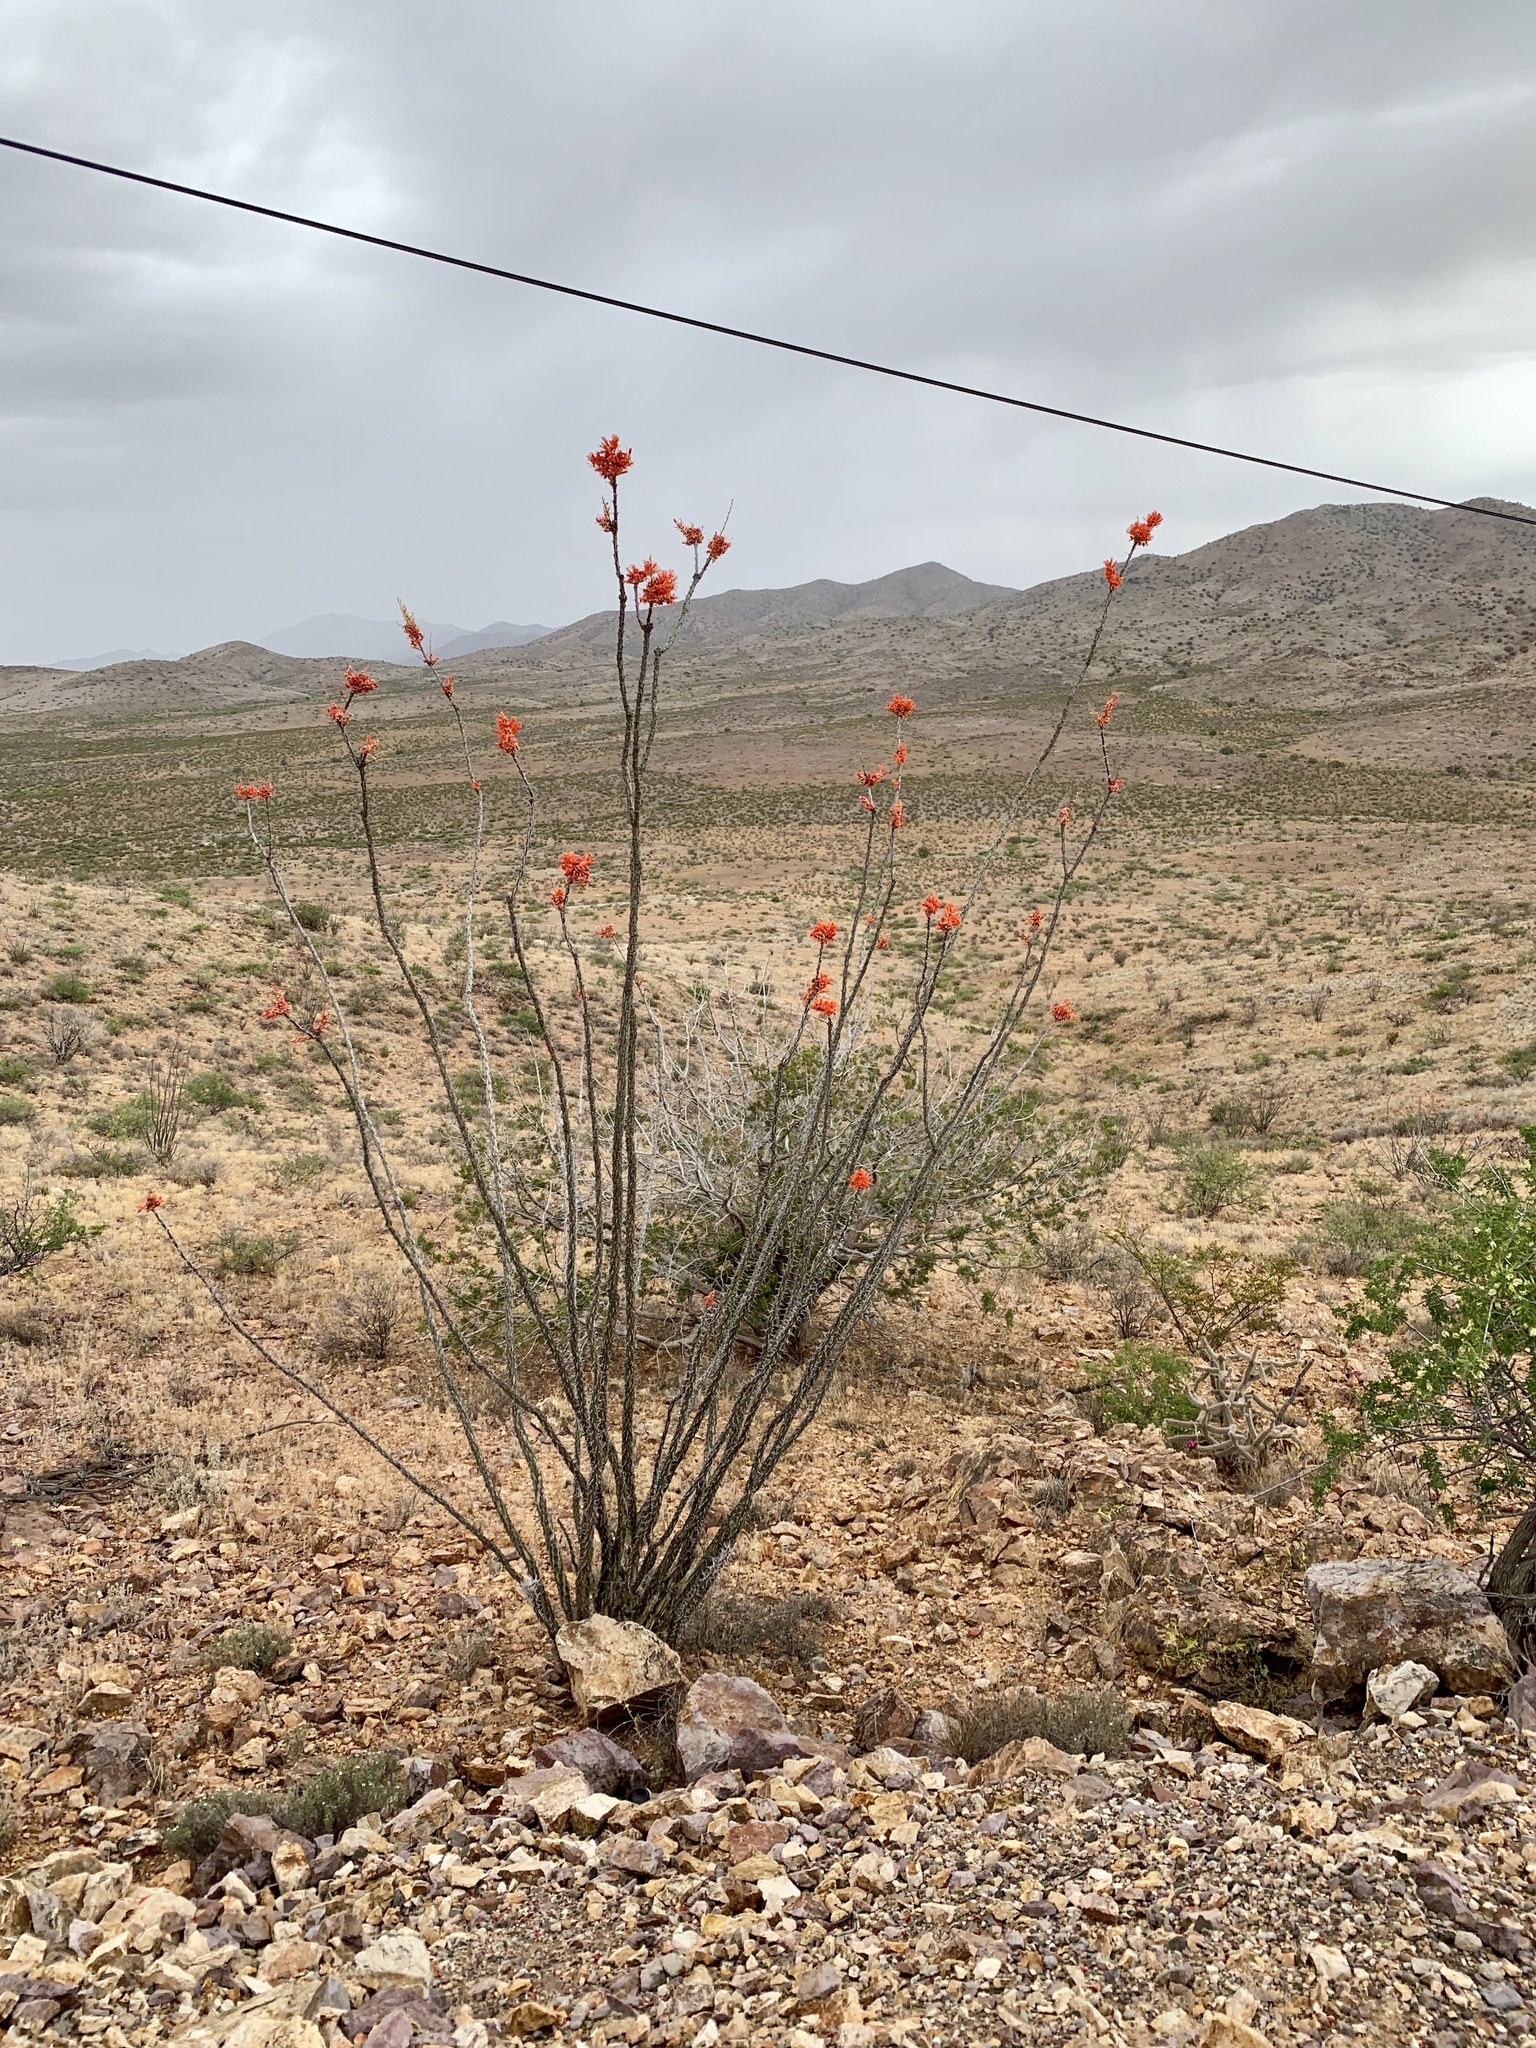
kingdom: Plantae
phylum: Tracheophyta
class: Magnoliopsida
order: Ericales
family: Fouquieriaceae
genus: Fouquieria
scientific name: Fouquieria splendens
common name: Vine-cactus
